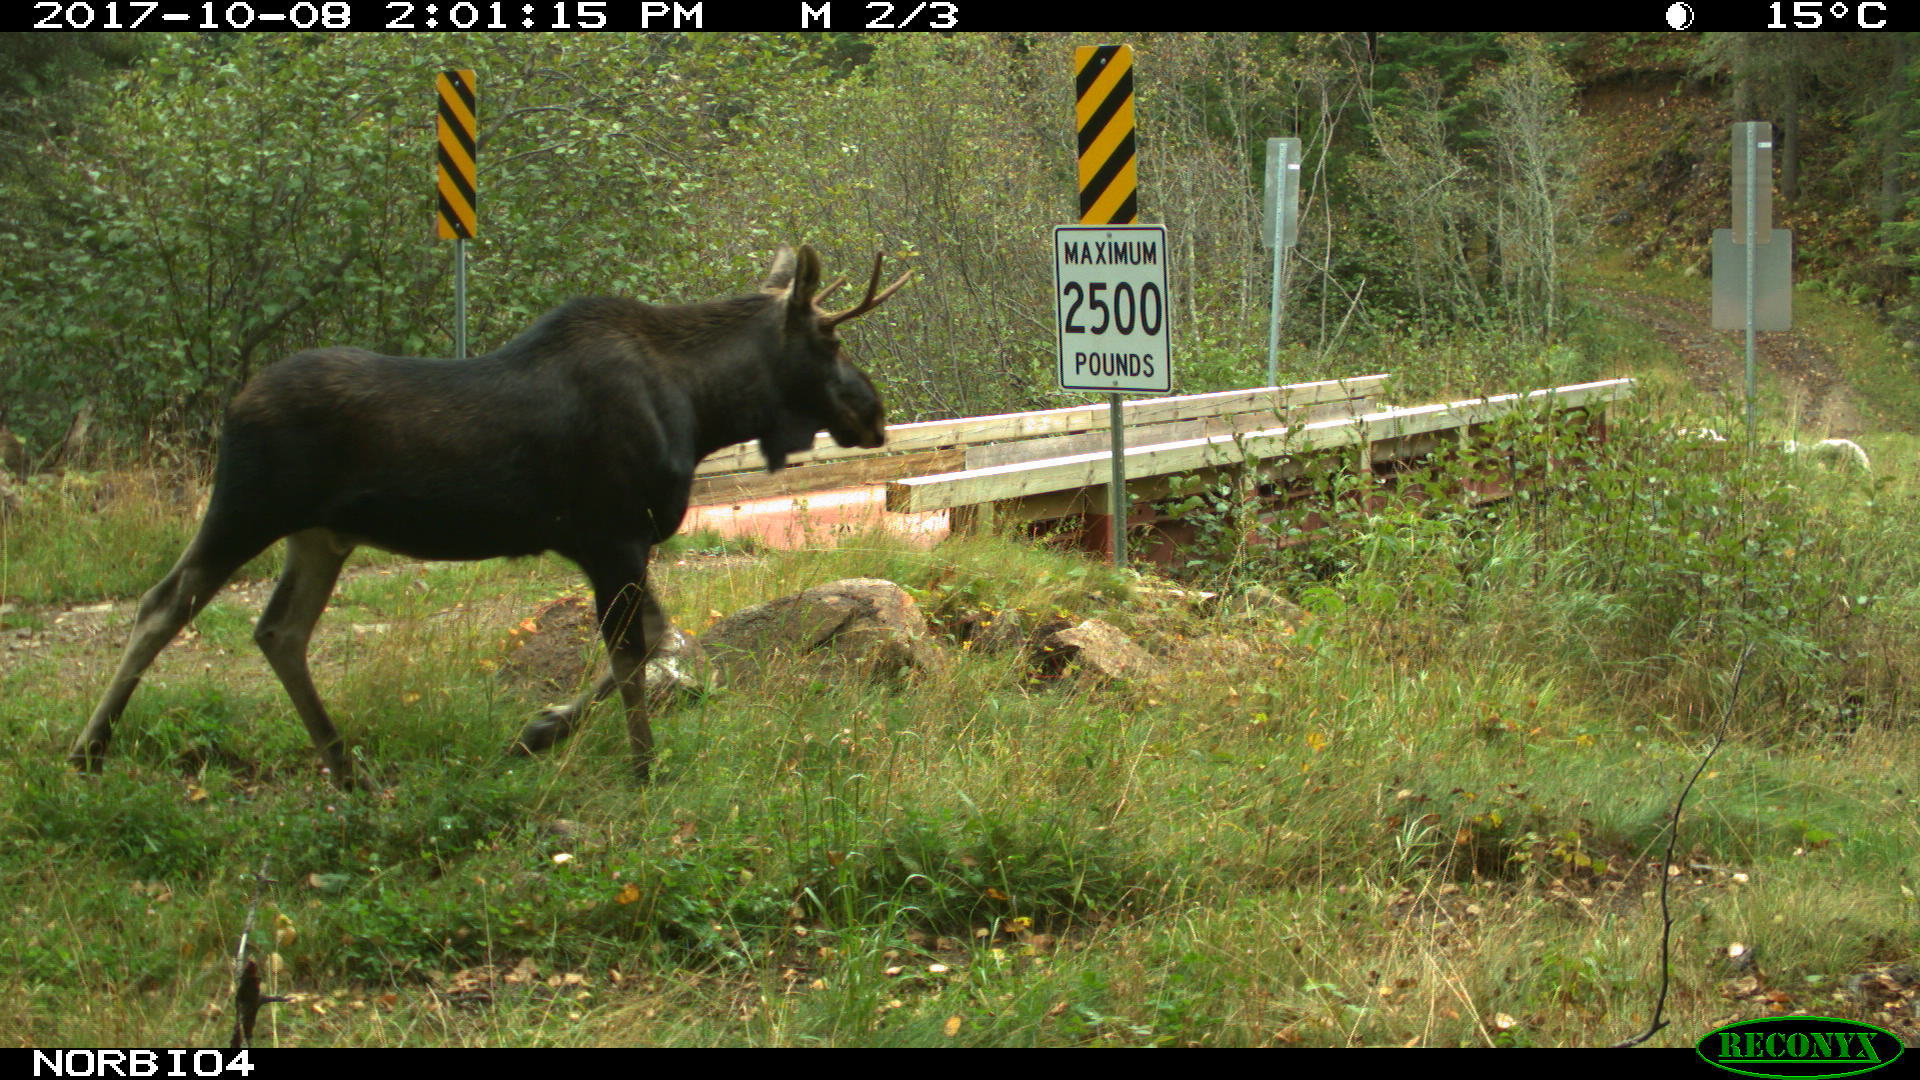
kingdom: Animalia
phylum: Chordata
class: Mammalia
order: Artiodactyla
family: Cervidae
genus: Alces
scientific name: Alces alces
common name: Moose
